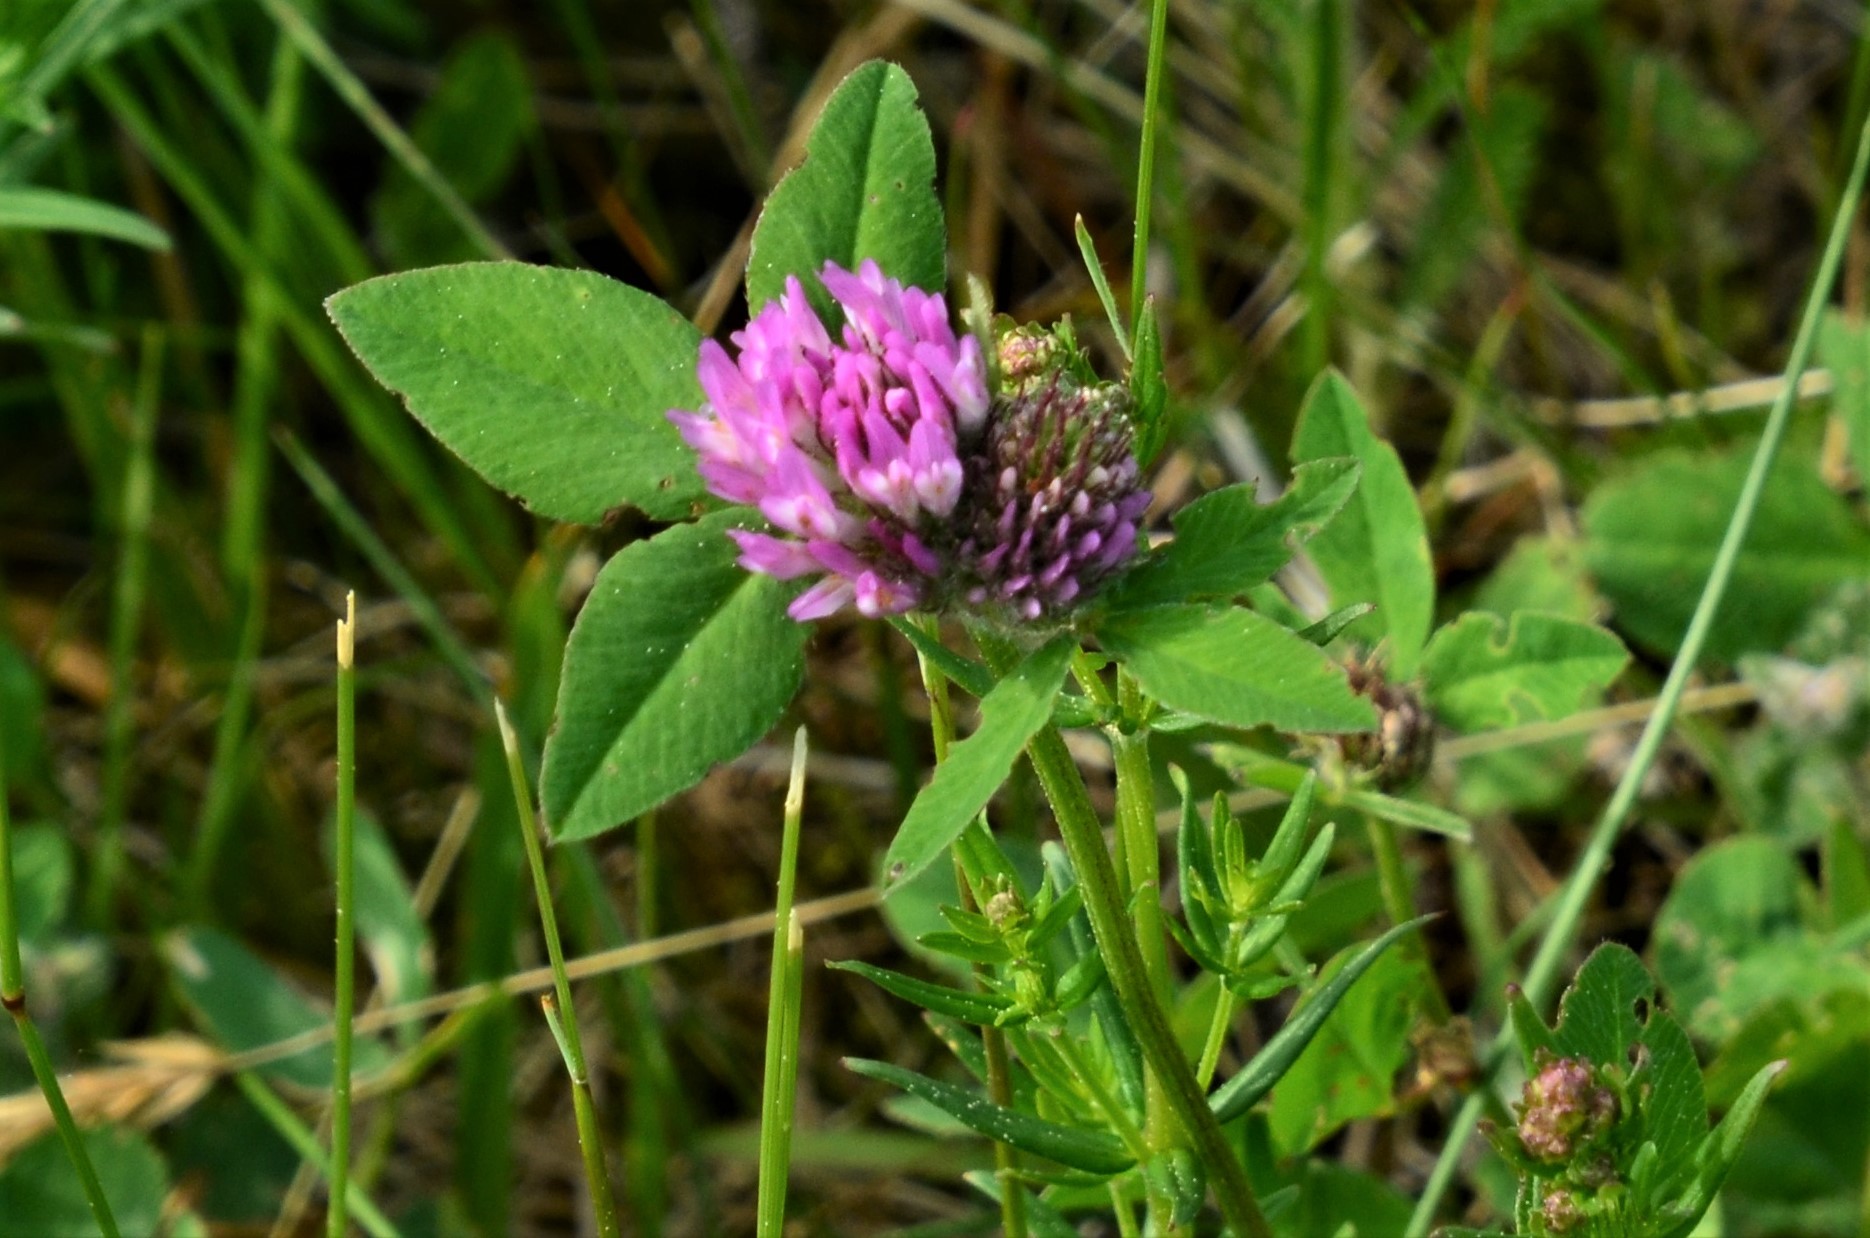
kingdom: Plantae
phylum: Tracheophyta
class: Magnoliopsida
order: Fabales
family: Fabaceae
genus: Trifolium
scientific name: Trifolium pratense
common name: Red clover
